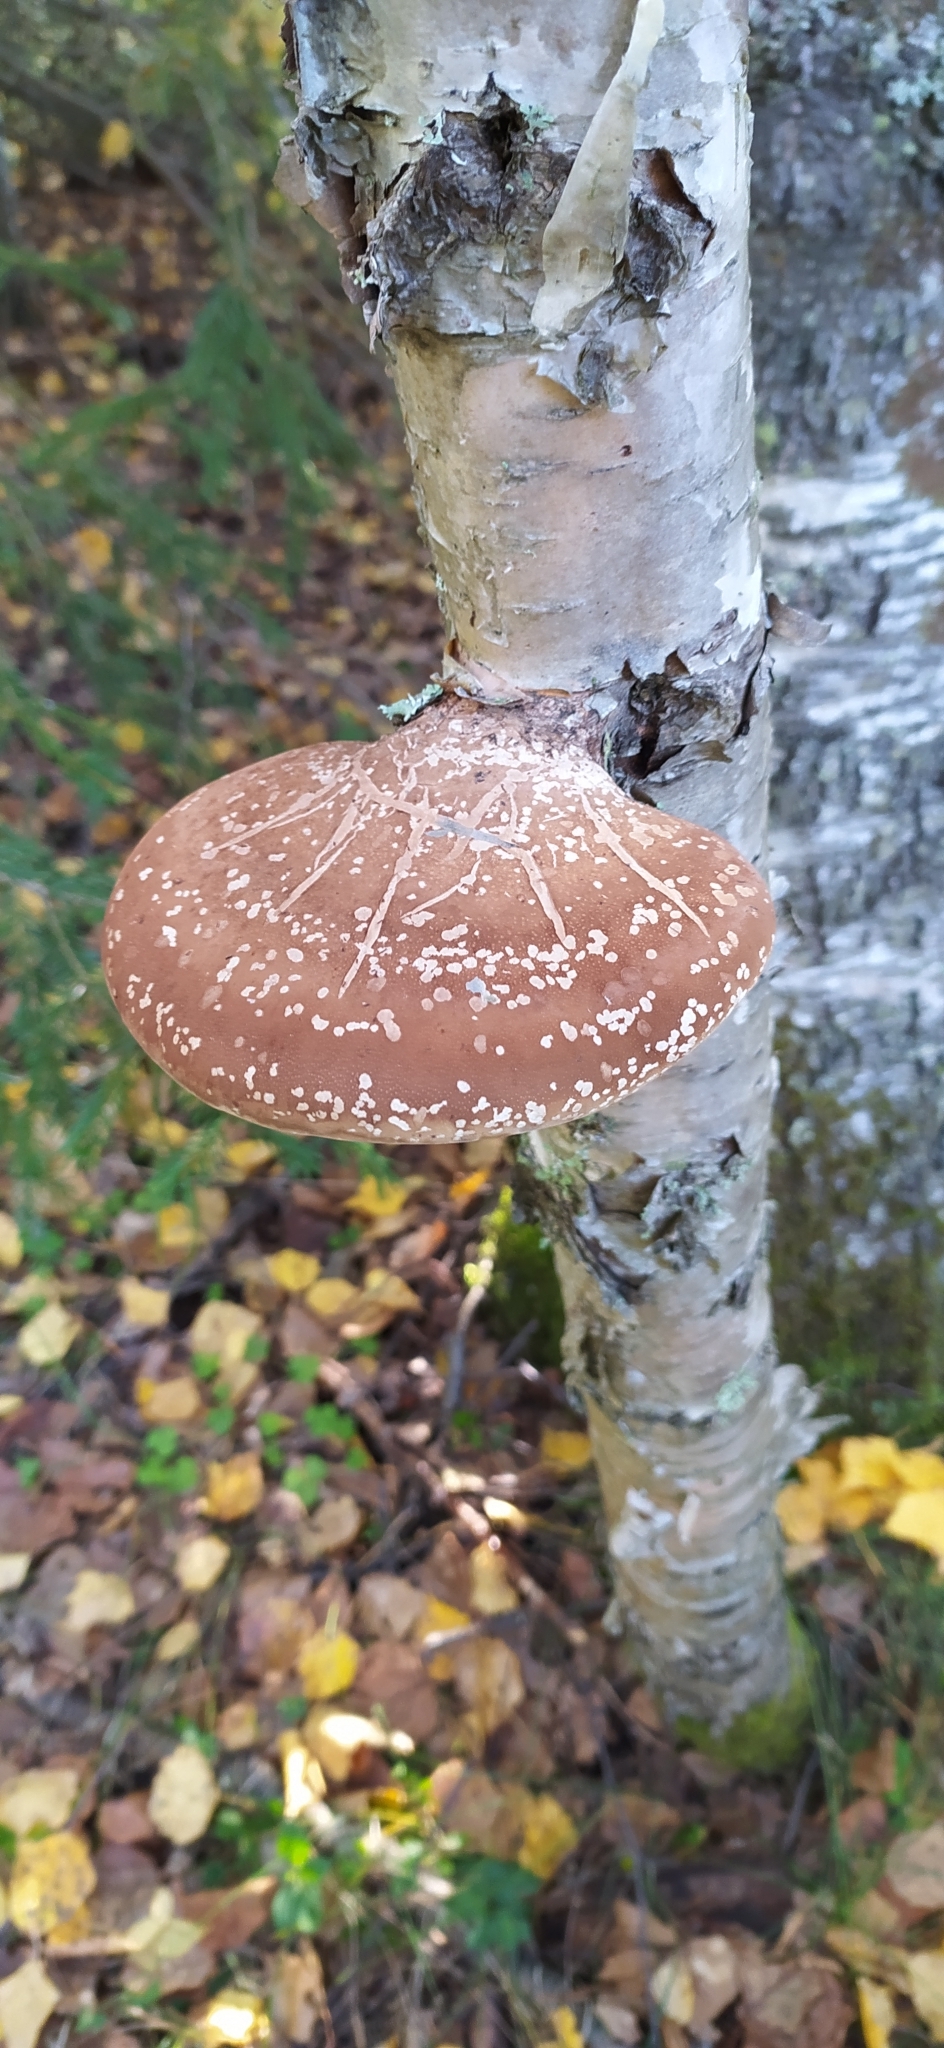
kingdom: Fungi
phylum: Basidiomycota
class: Agaricomycetes
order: Polyporales
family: Fomitopsidaceae
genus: Fomitopsis
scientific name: Fomitopsis betulina
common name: Birch polypore
